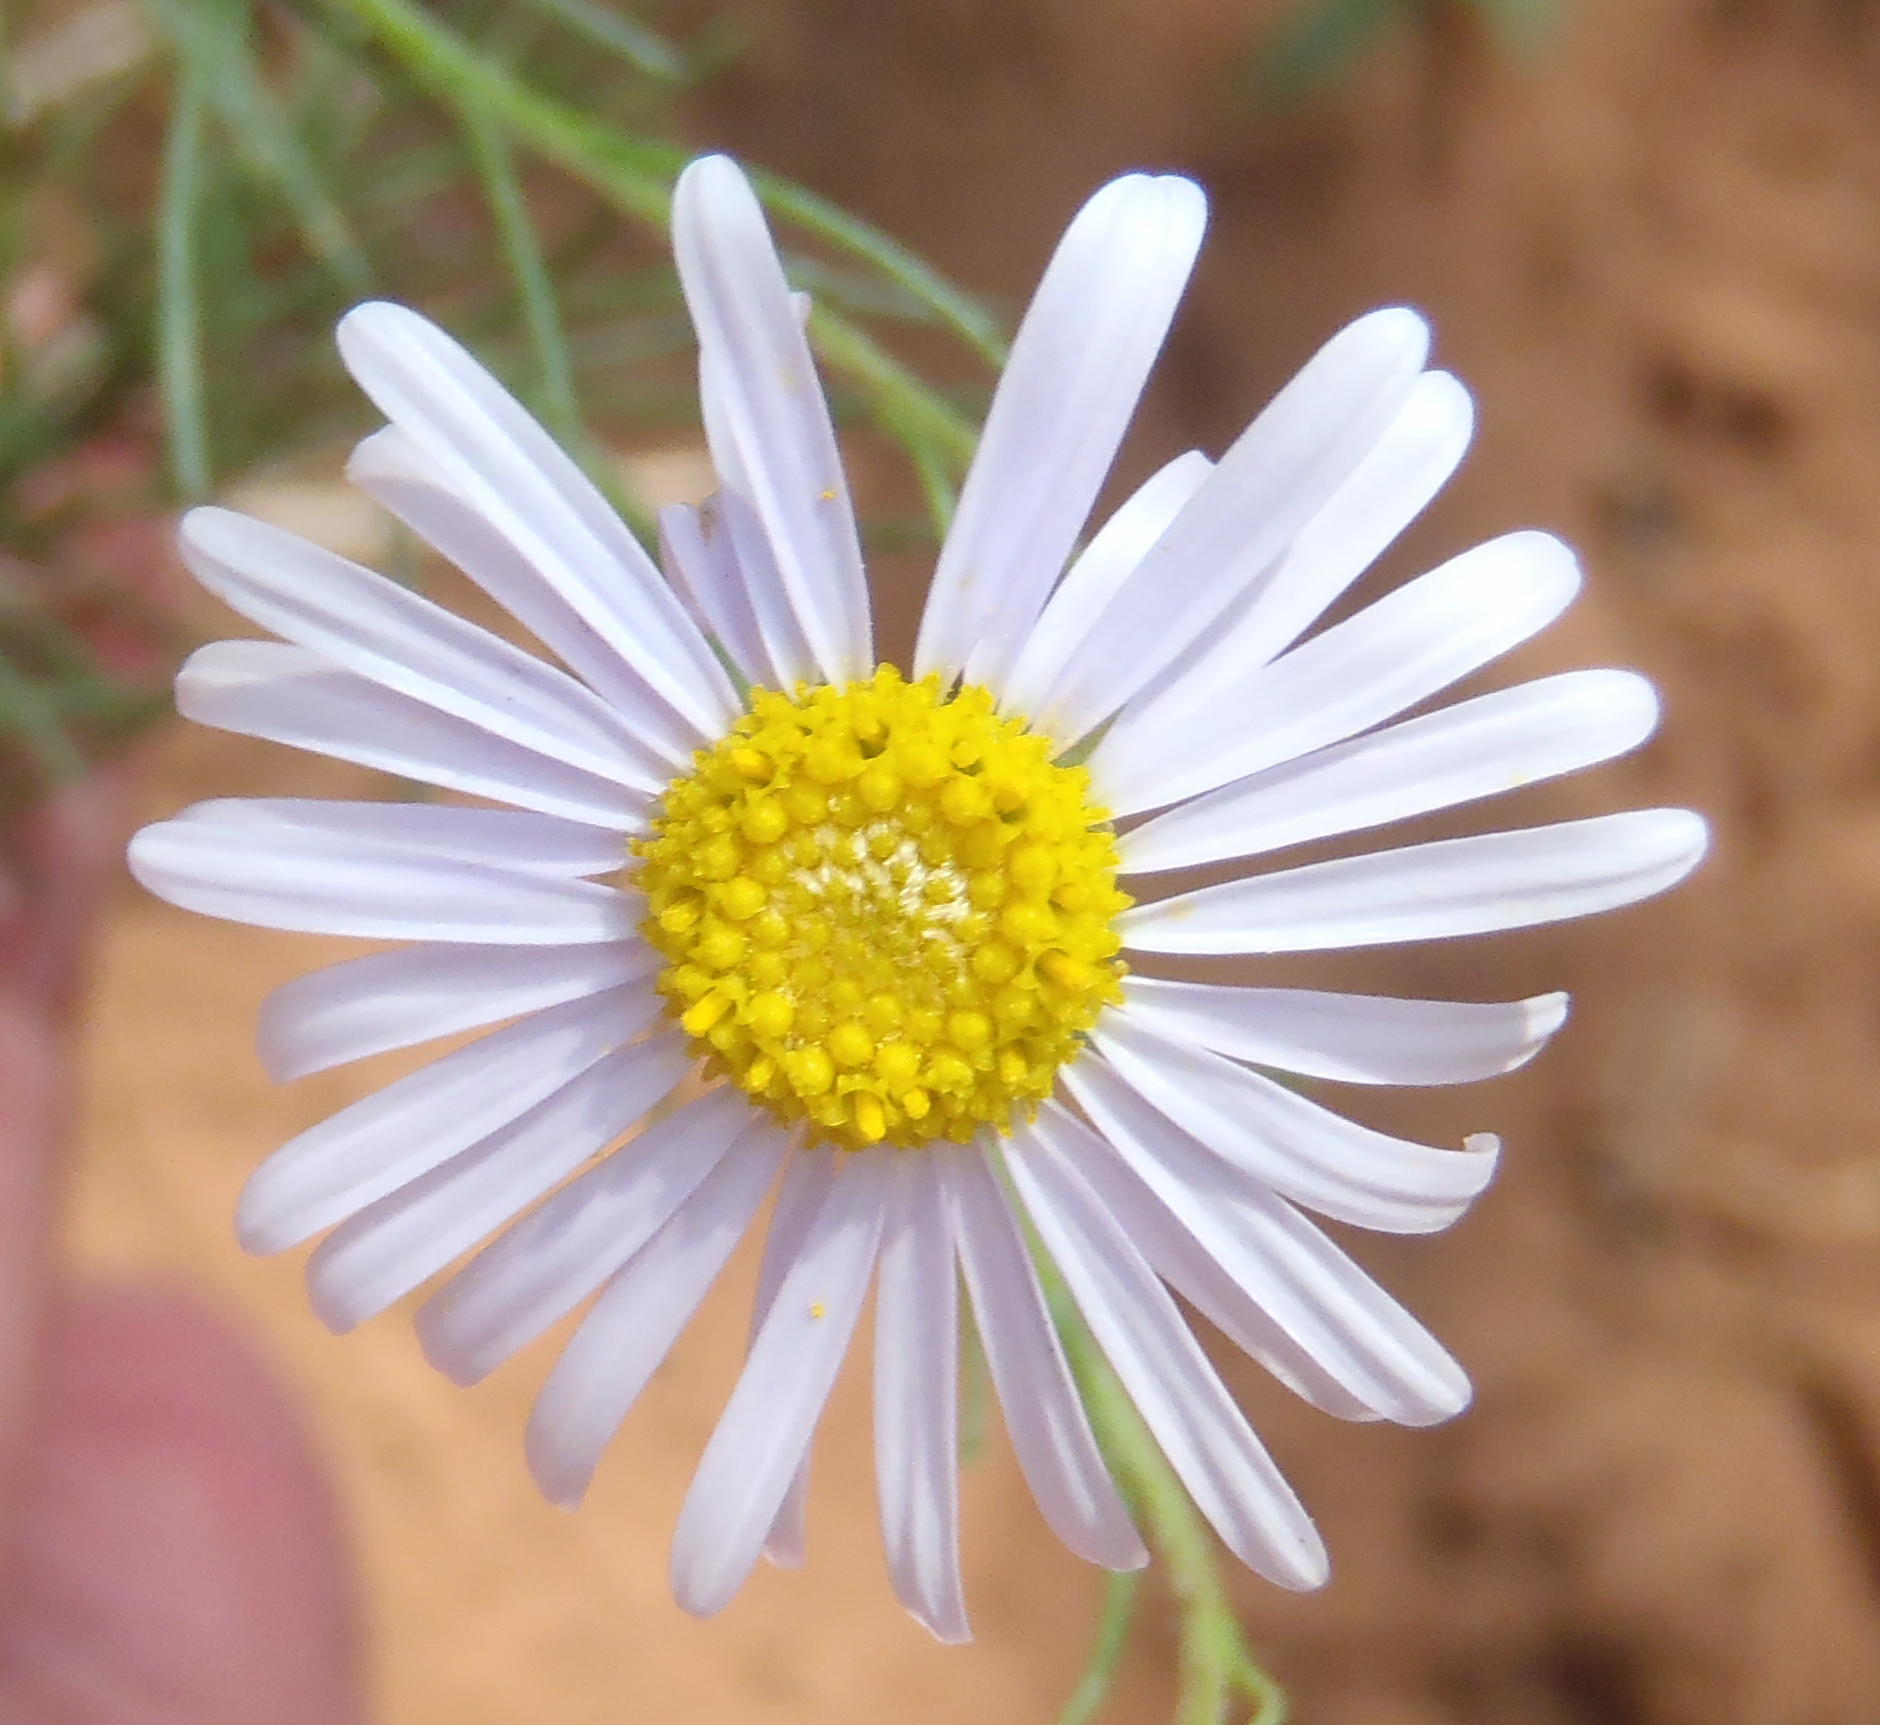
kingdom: Plantae
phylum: Tracheophyta
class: Magnoliopsida
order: Asterales
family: Asteraceae
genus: Felicia
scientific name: Felicia muricata
